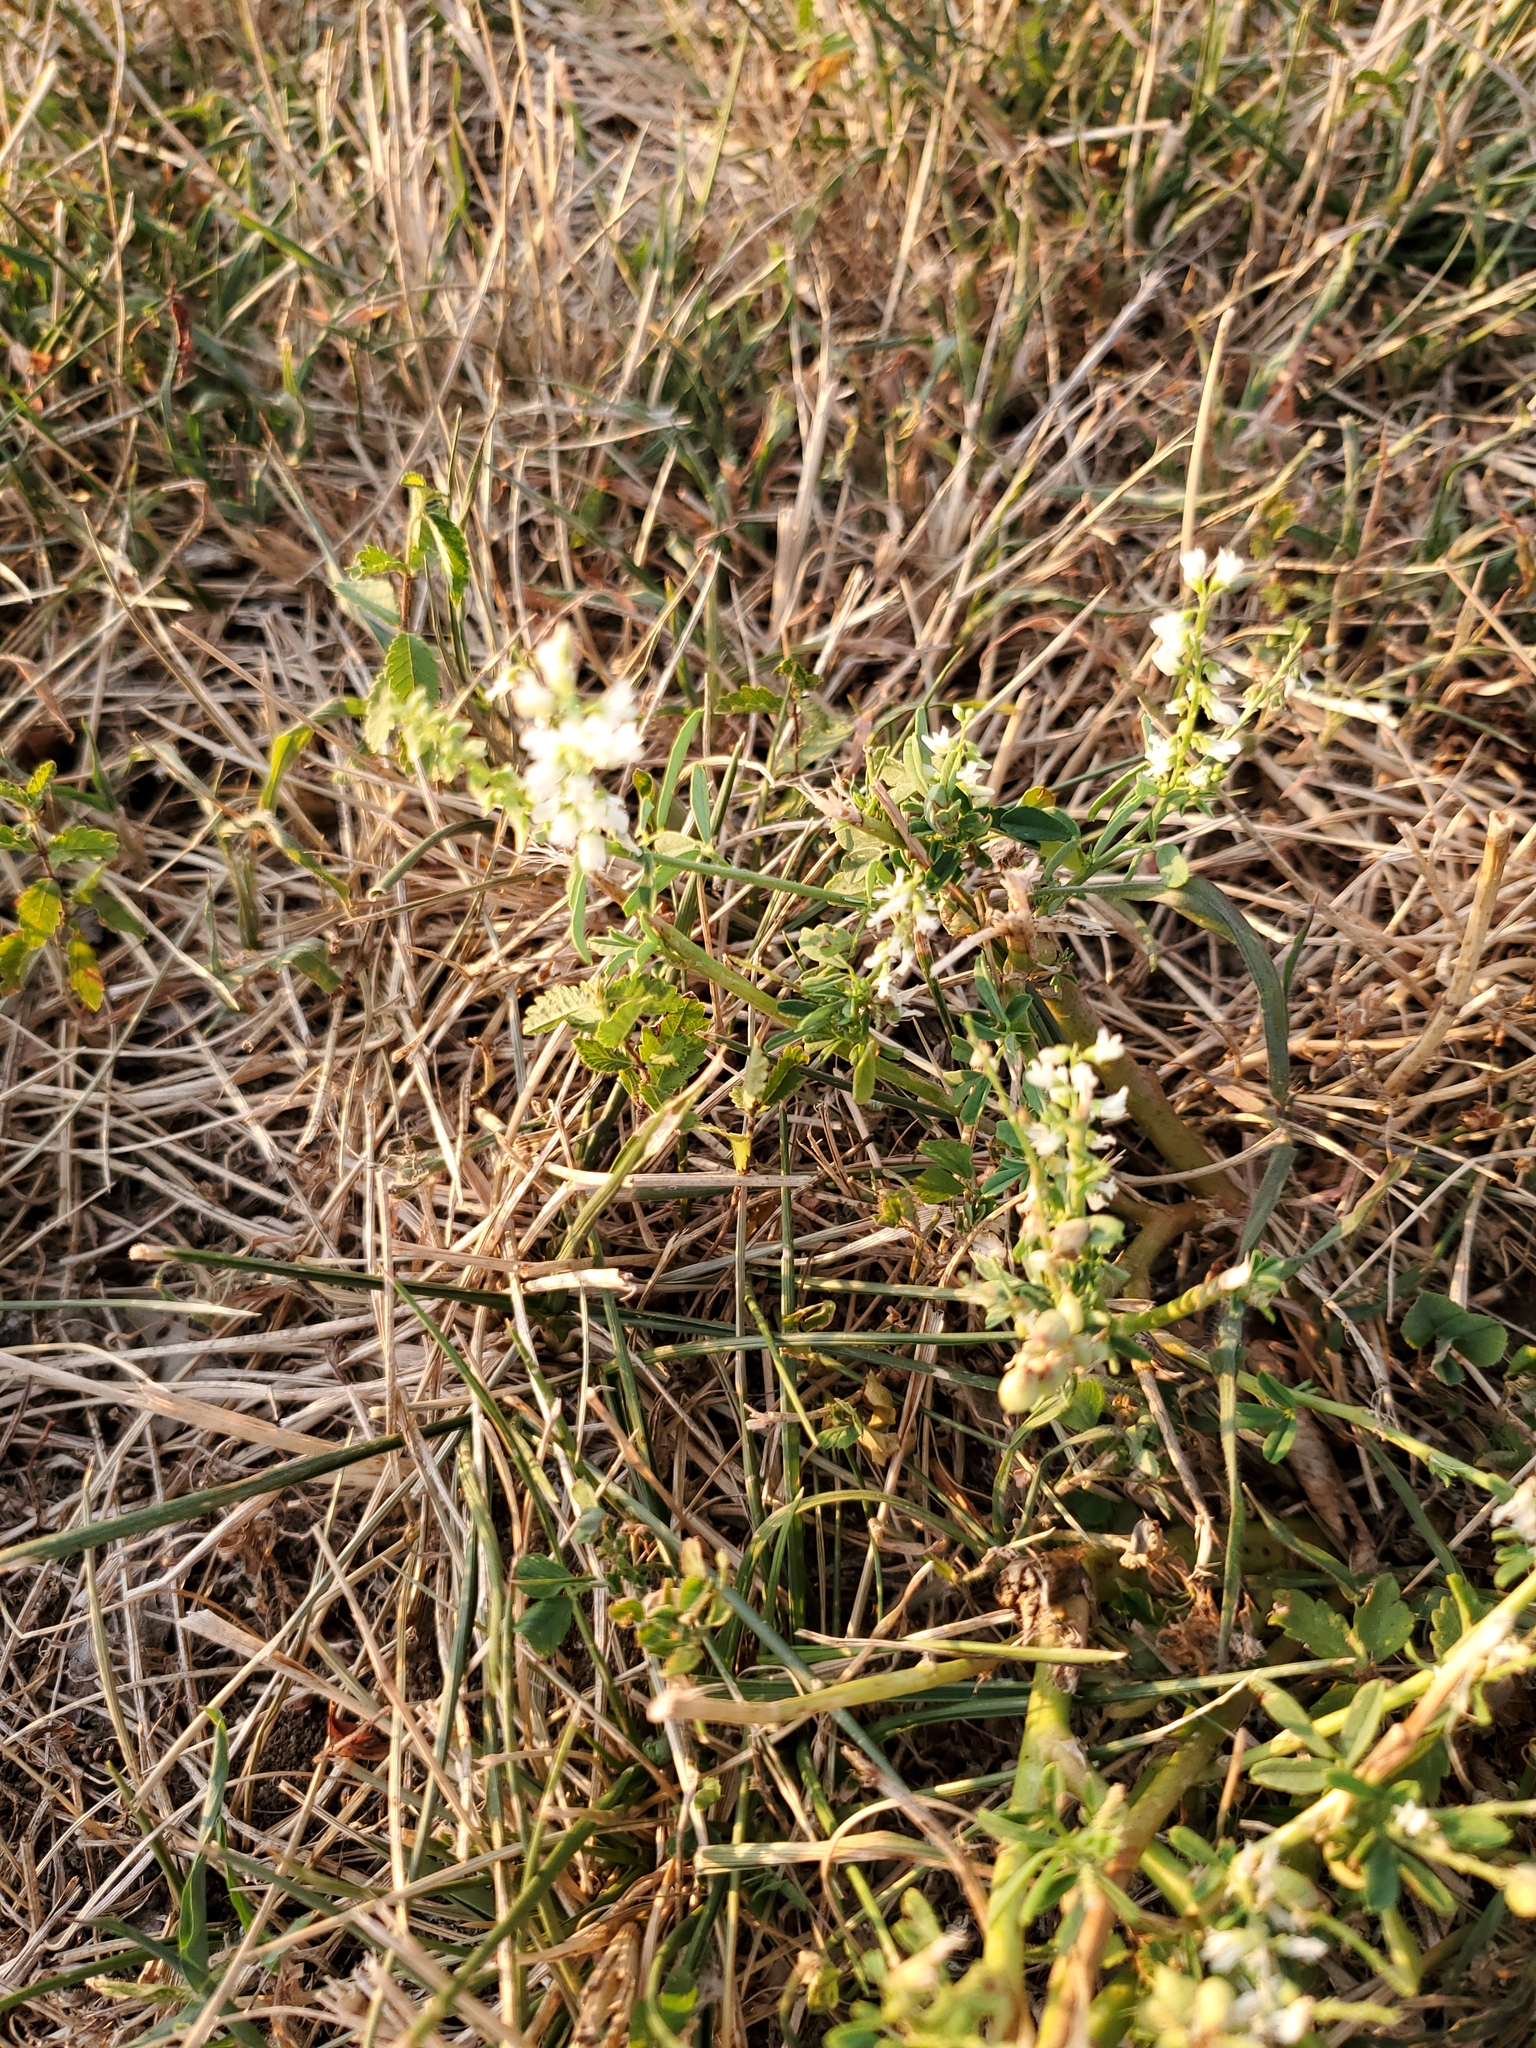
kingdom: Plantae
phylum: Tracheophyta
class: Magnoliopsida
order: Fabales
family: Fabaceae
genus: Melilotus
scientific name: Melilotus albus
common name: White melilot
